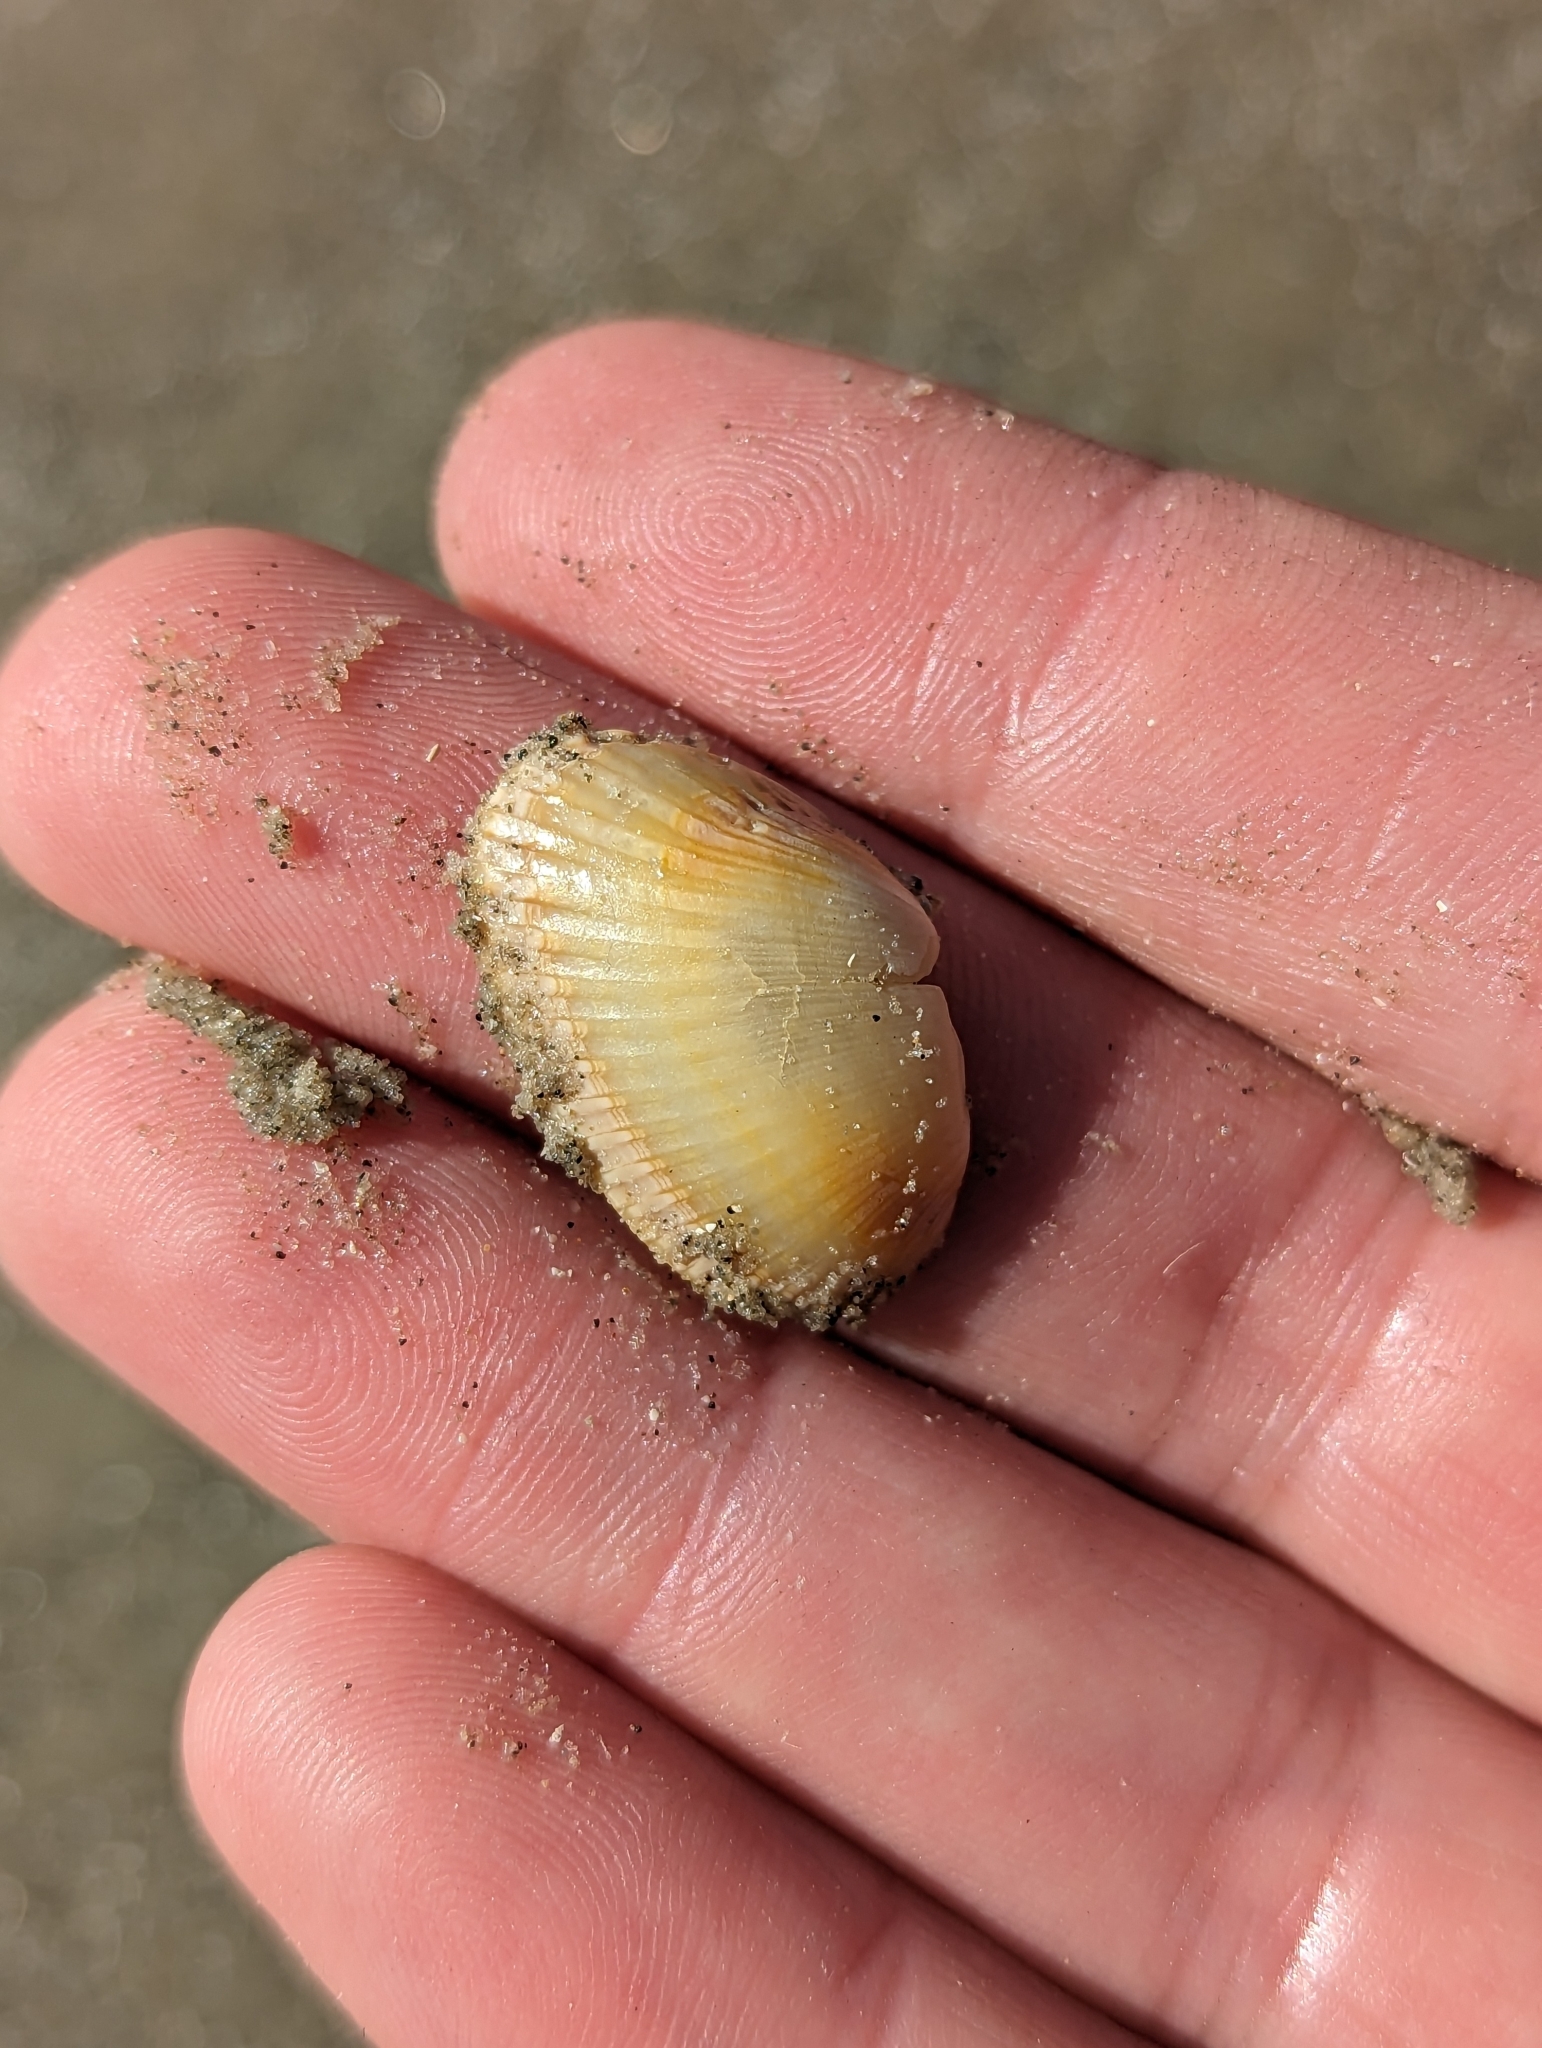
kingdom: Animalia
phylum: Mollusca
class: Bivalvia
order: Arcida
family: Arcidae
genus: Anadara
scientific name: Anadara transversa
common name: Transverse ark
